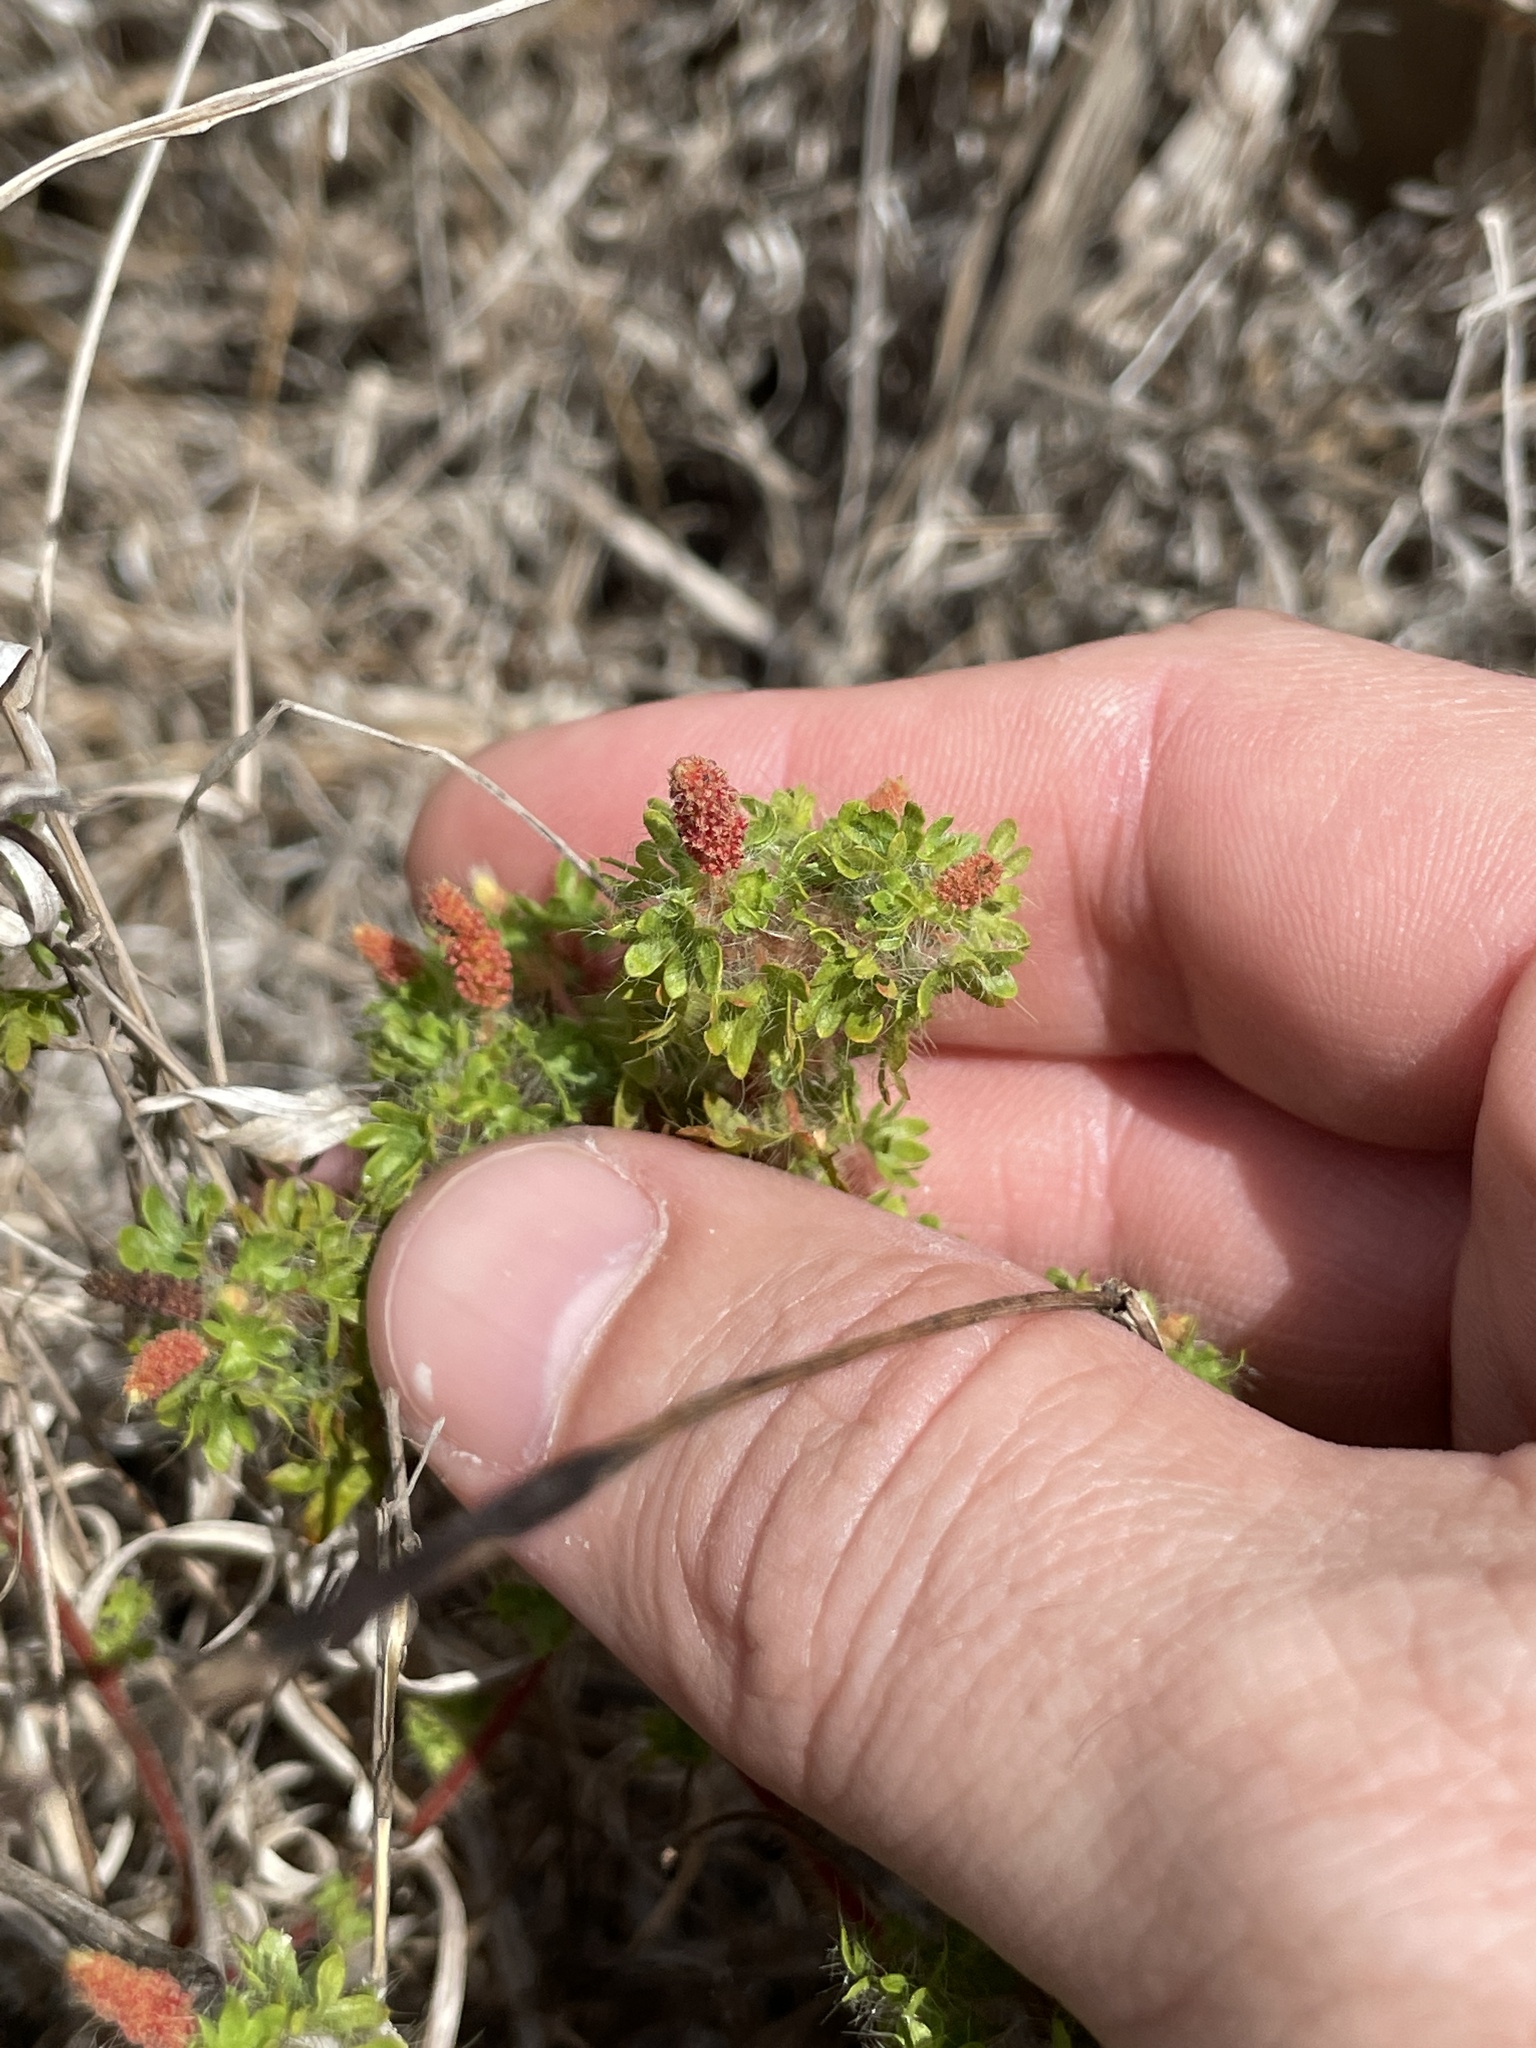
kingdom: Plantae
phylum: Tracheophyta
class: Magnoliopsida
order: Malpighiales
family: Euphorbiaceae
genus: Acalypha
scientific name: Acalypha radians
